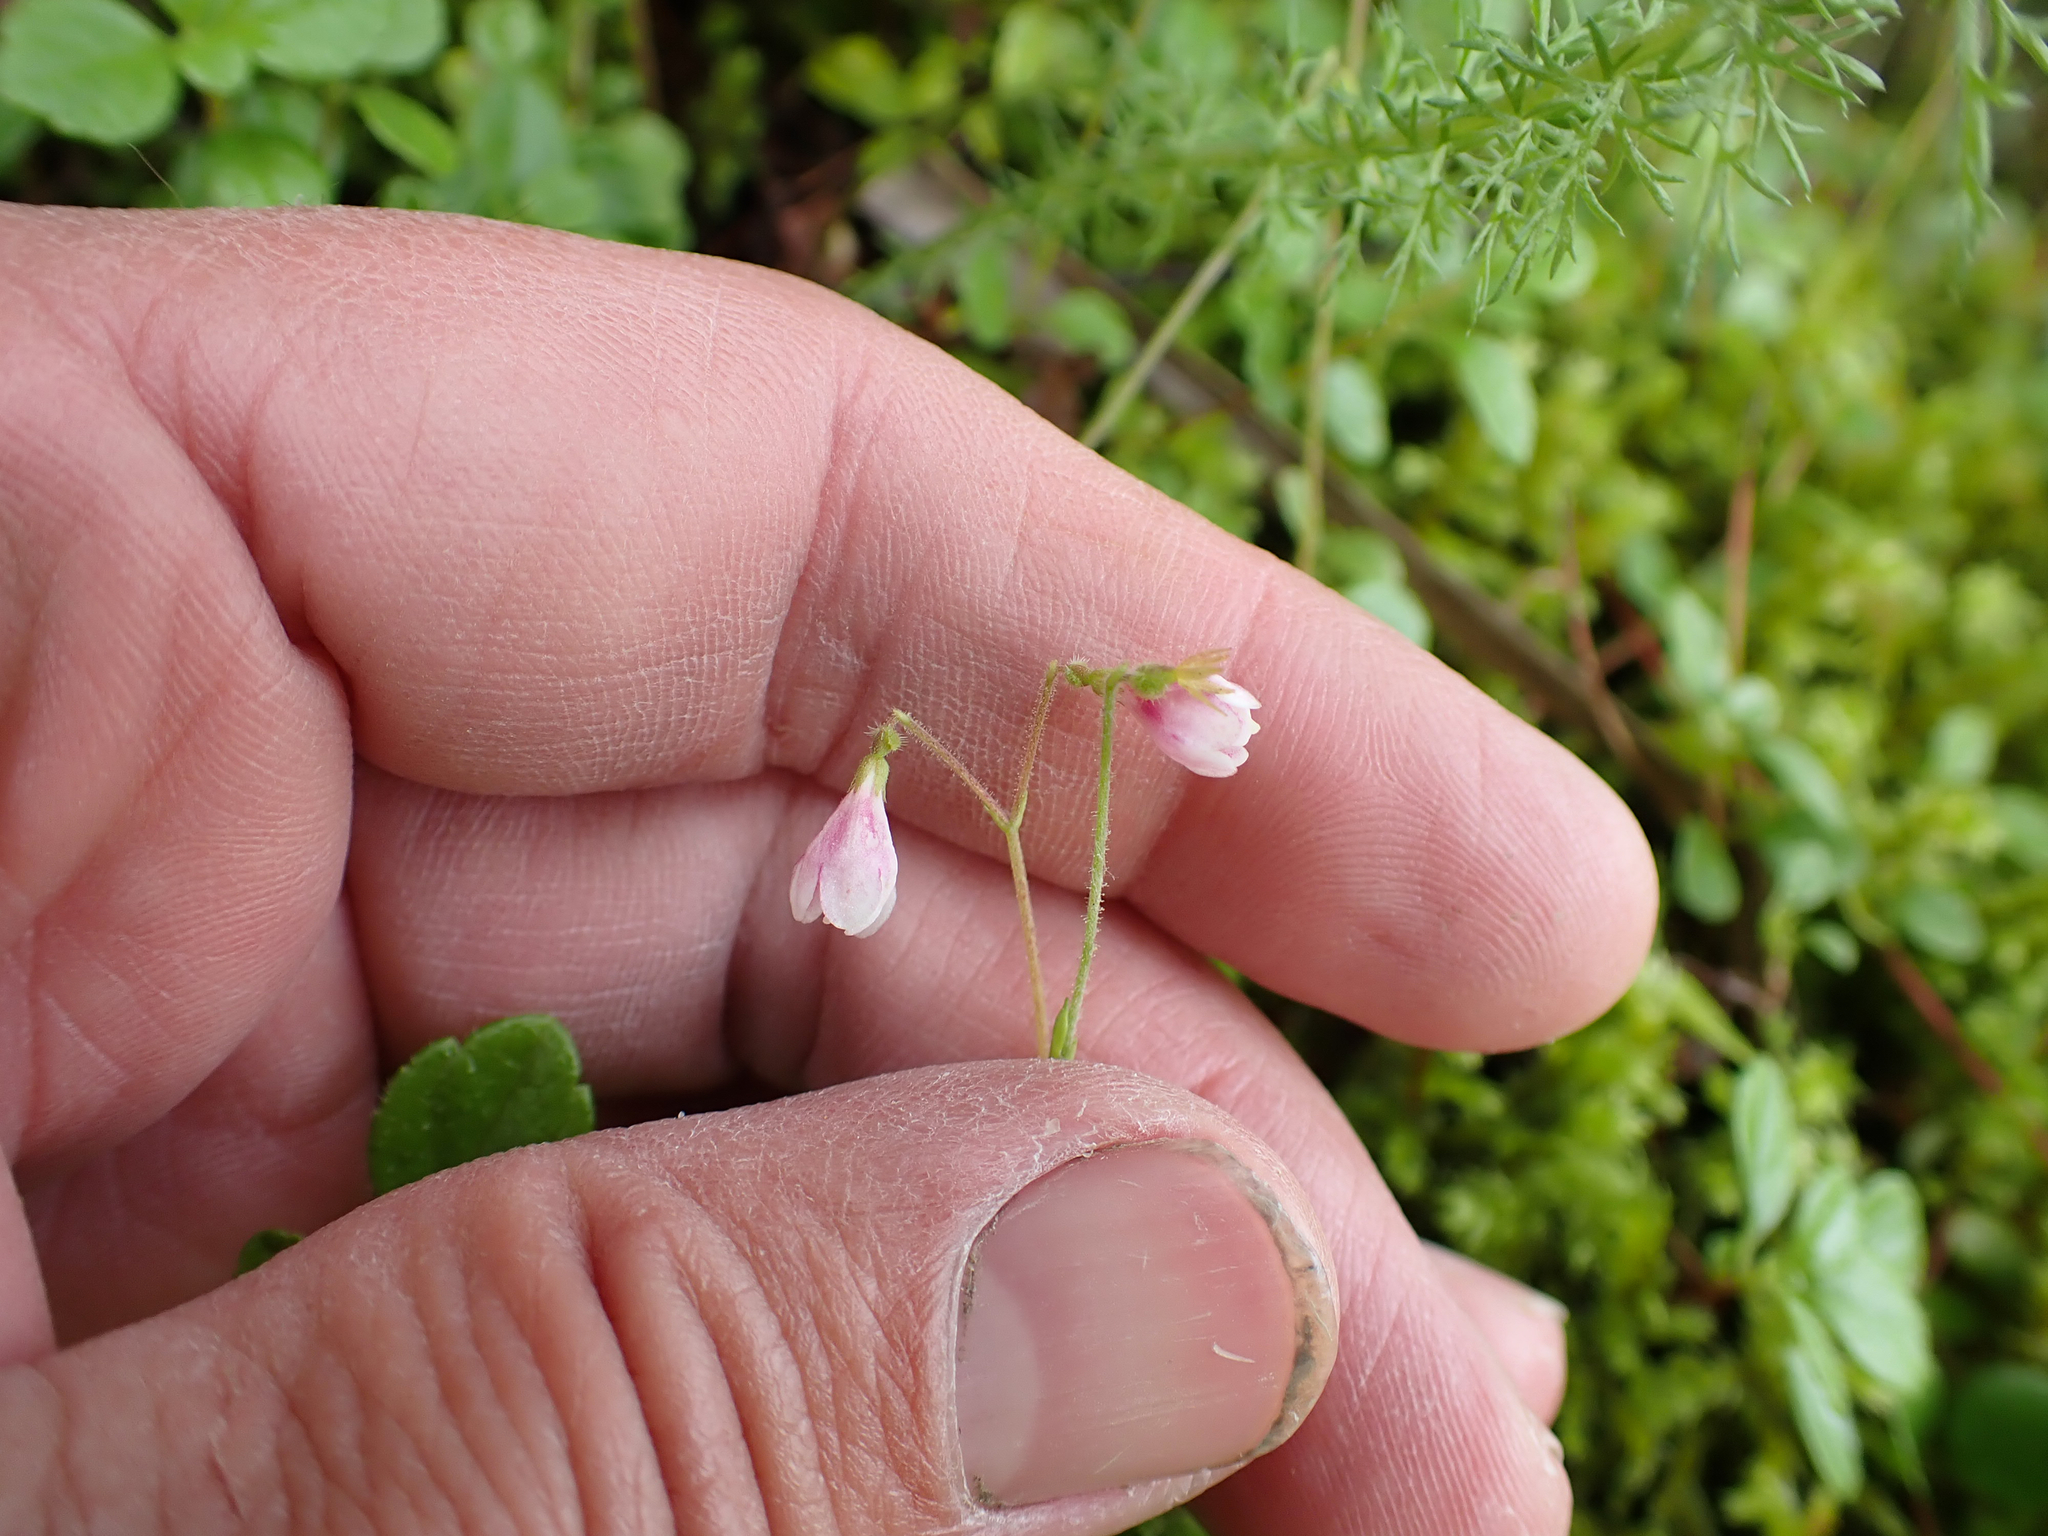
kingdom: Plantae
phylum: Tracheophyta
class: Magnoliopsida
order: Dipsacales
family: Caprifoliaceae
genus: Linnaea
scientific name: Linnaea borealis
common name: Twinflower
